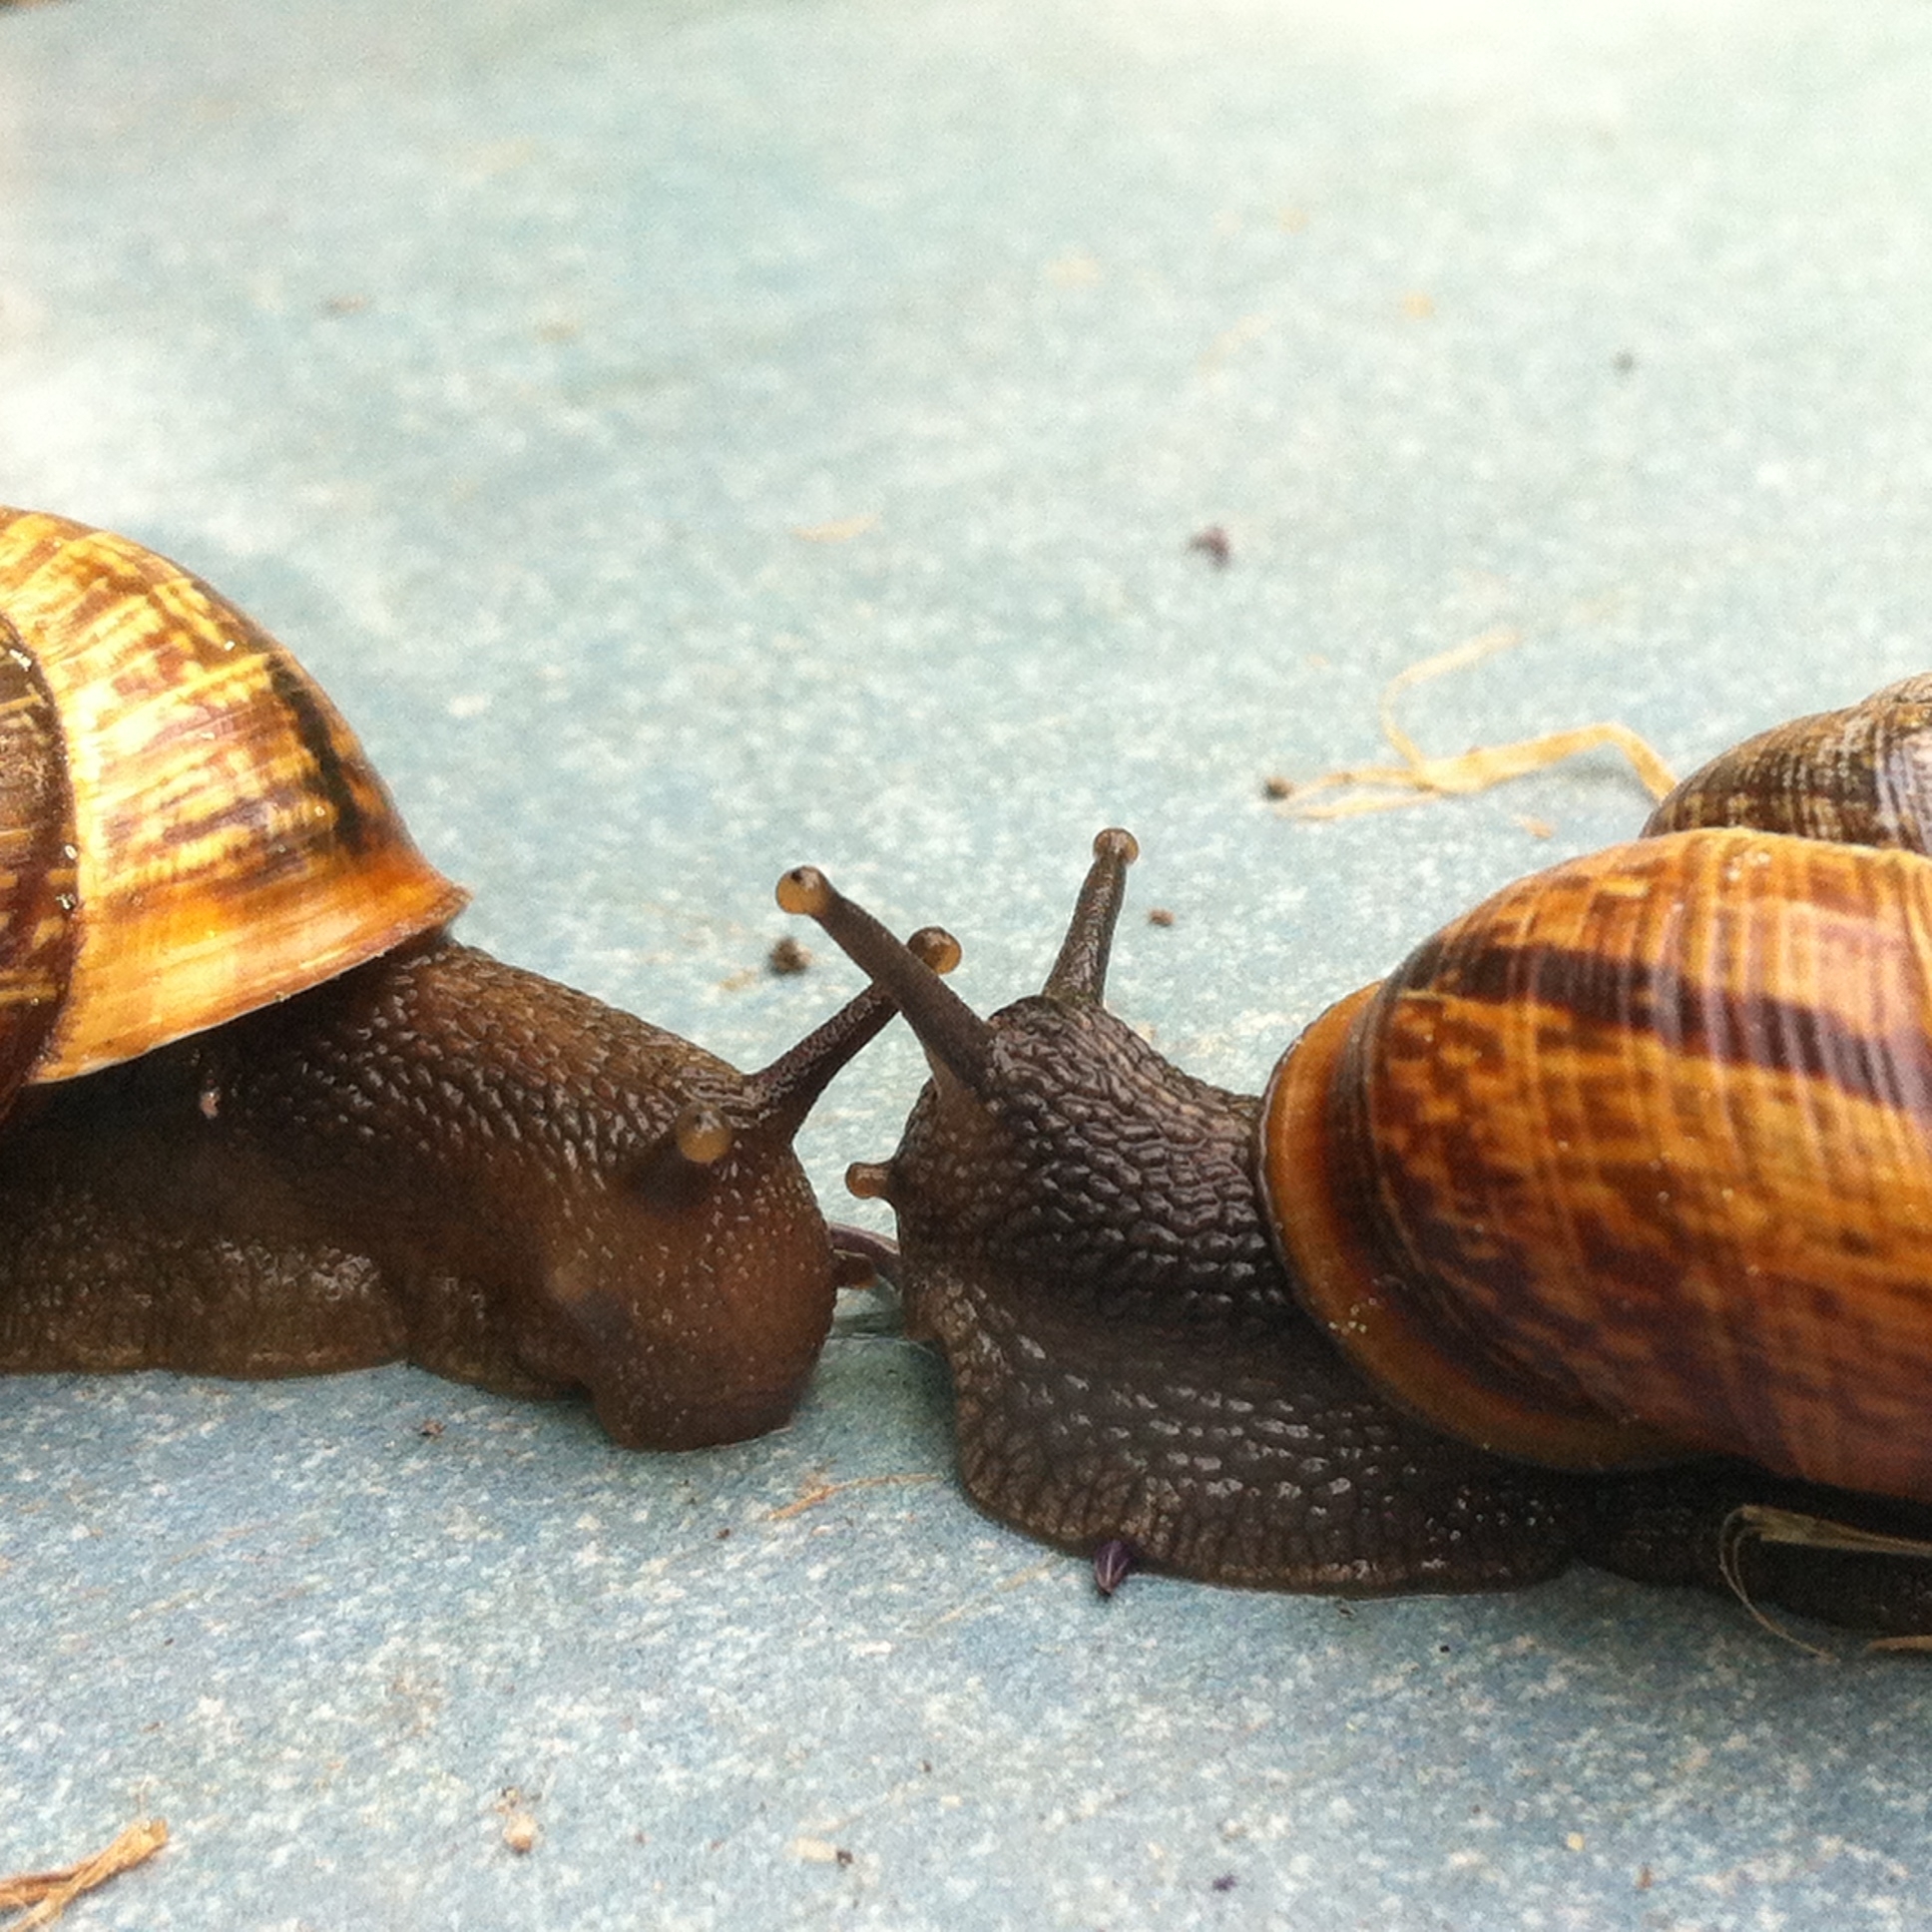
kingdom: Animalia
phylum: Mollusca
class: Gastropoda
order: Stylommatophora
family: Helicidae
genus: Arianta
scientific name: Arianta arbustorum
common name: Copse snail
